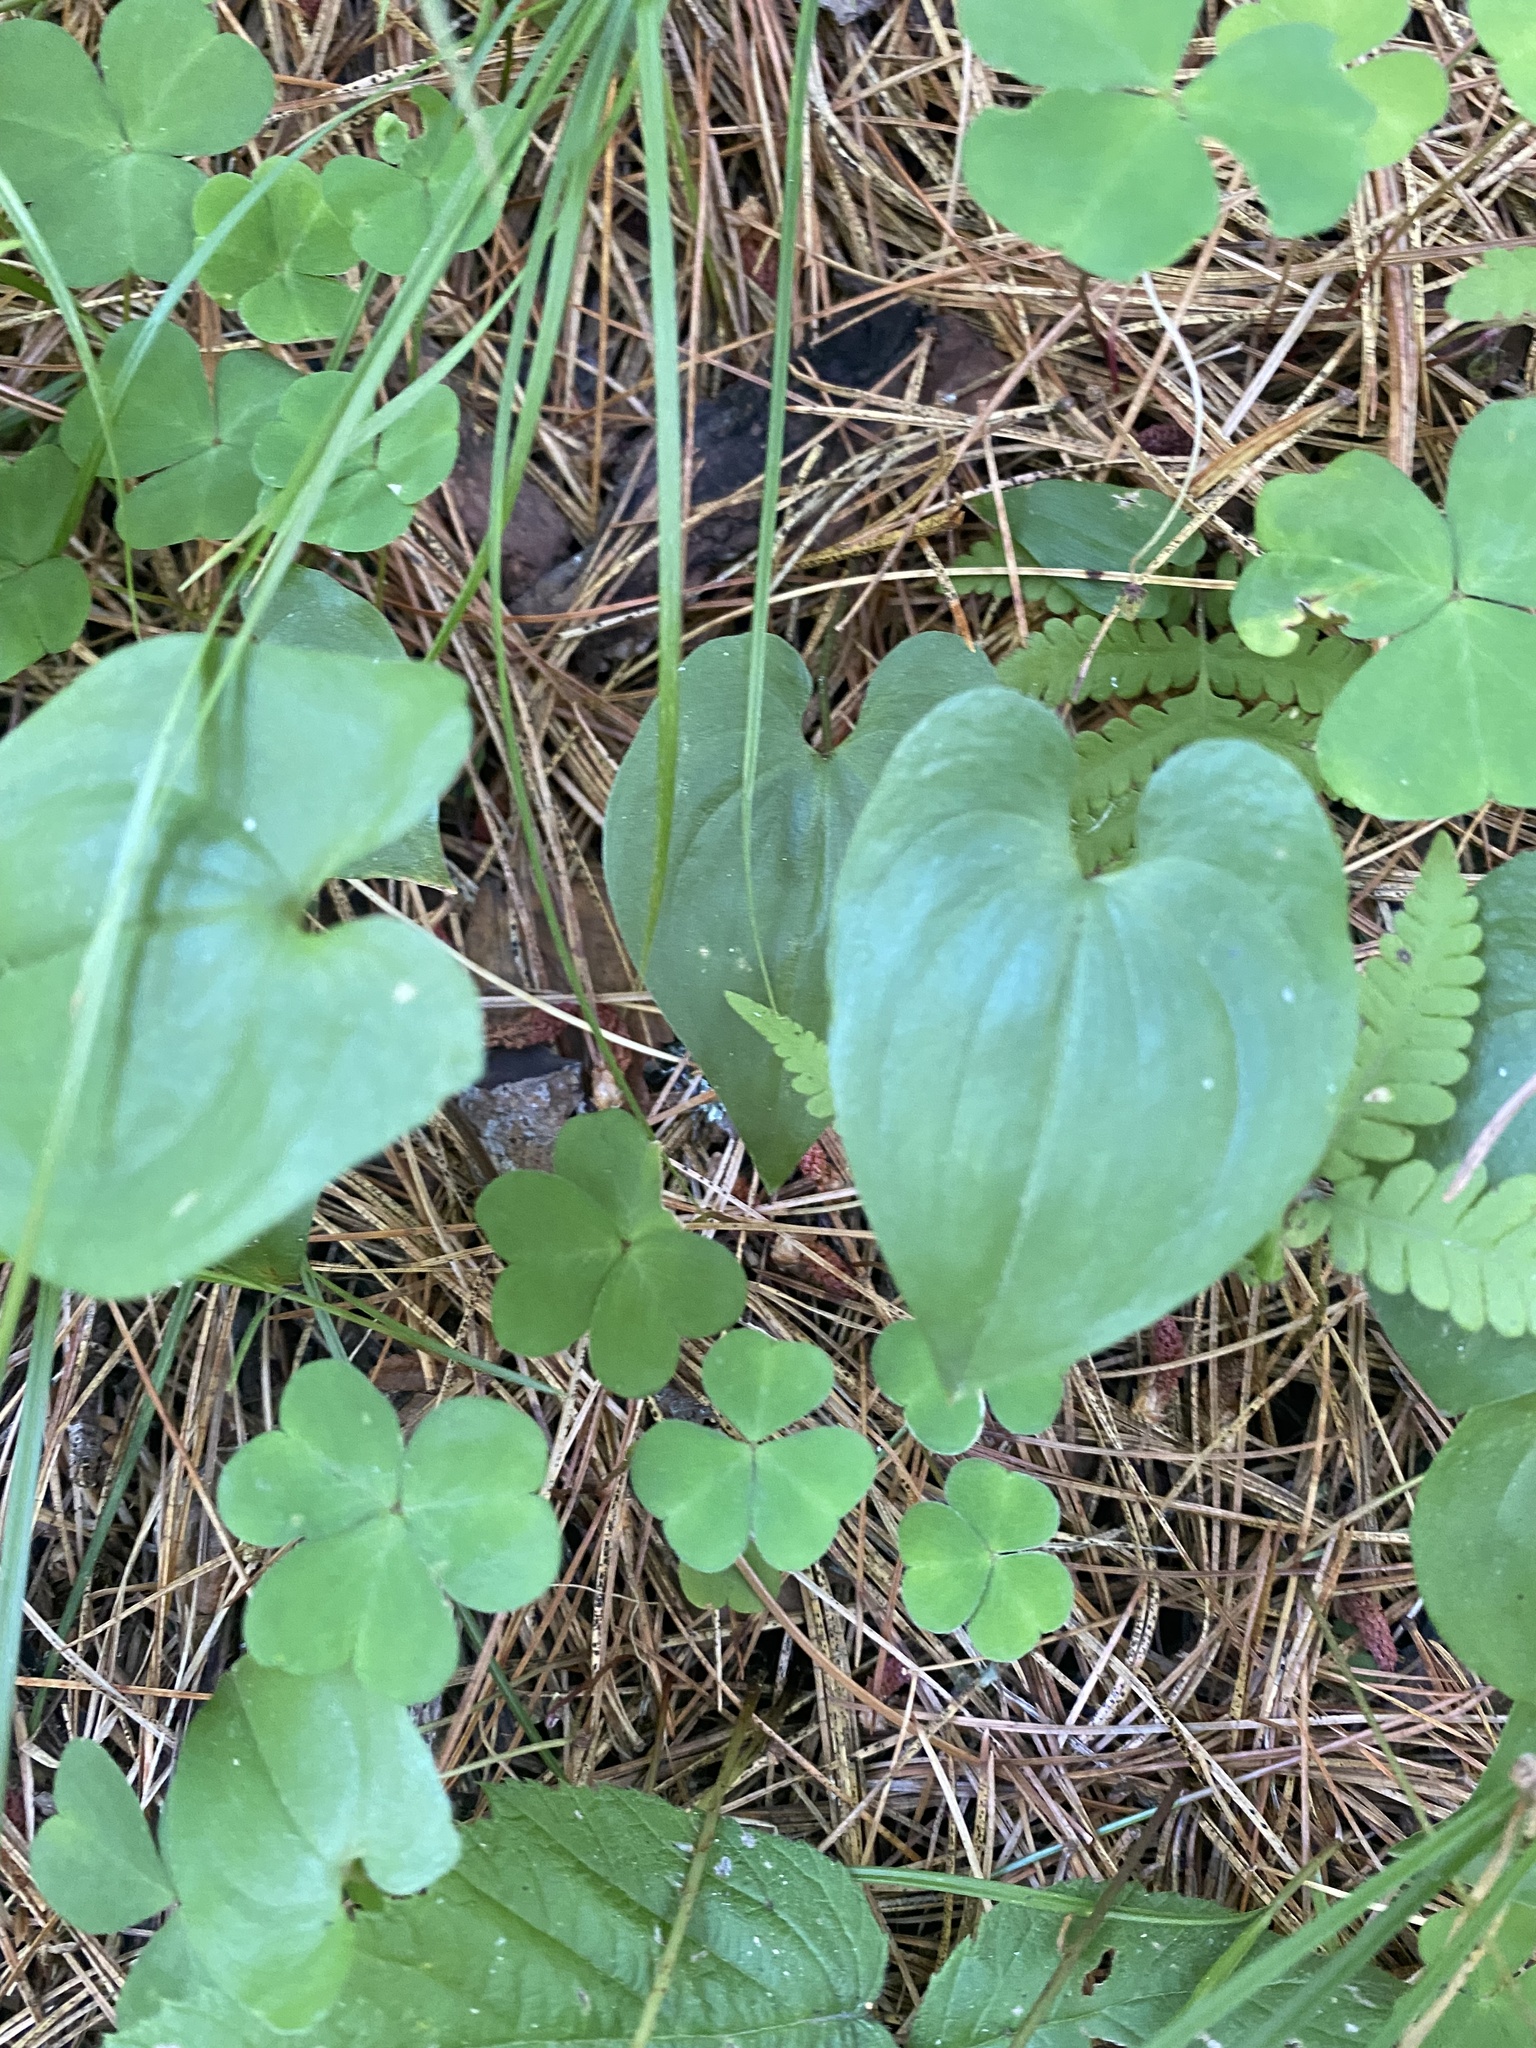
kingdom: Plantae
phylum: Tracheophyta
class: Liliopsida
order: Asparagales
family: Asparagaceae
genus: Maianthemum
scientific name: Maianthemum bifolium
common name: May lily
